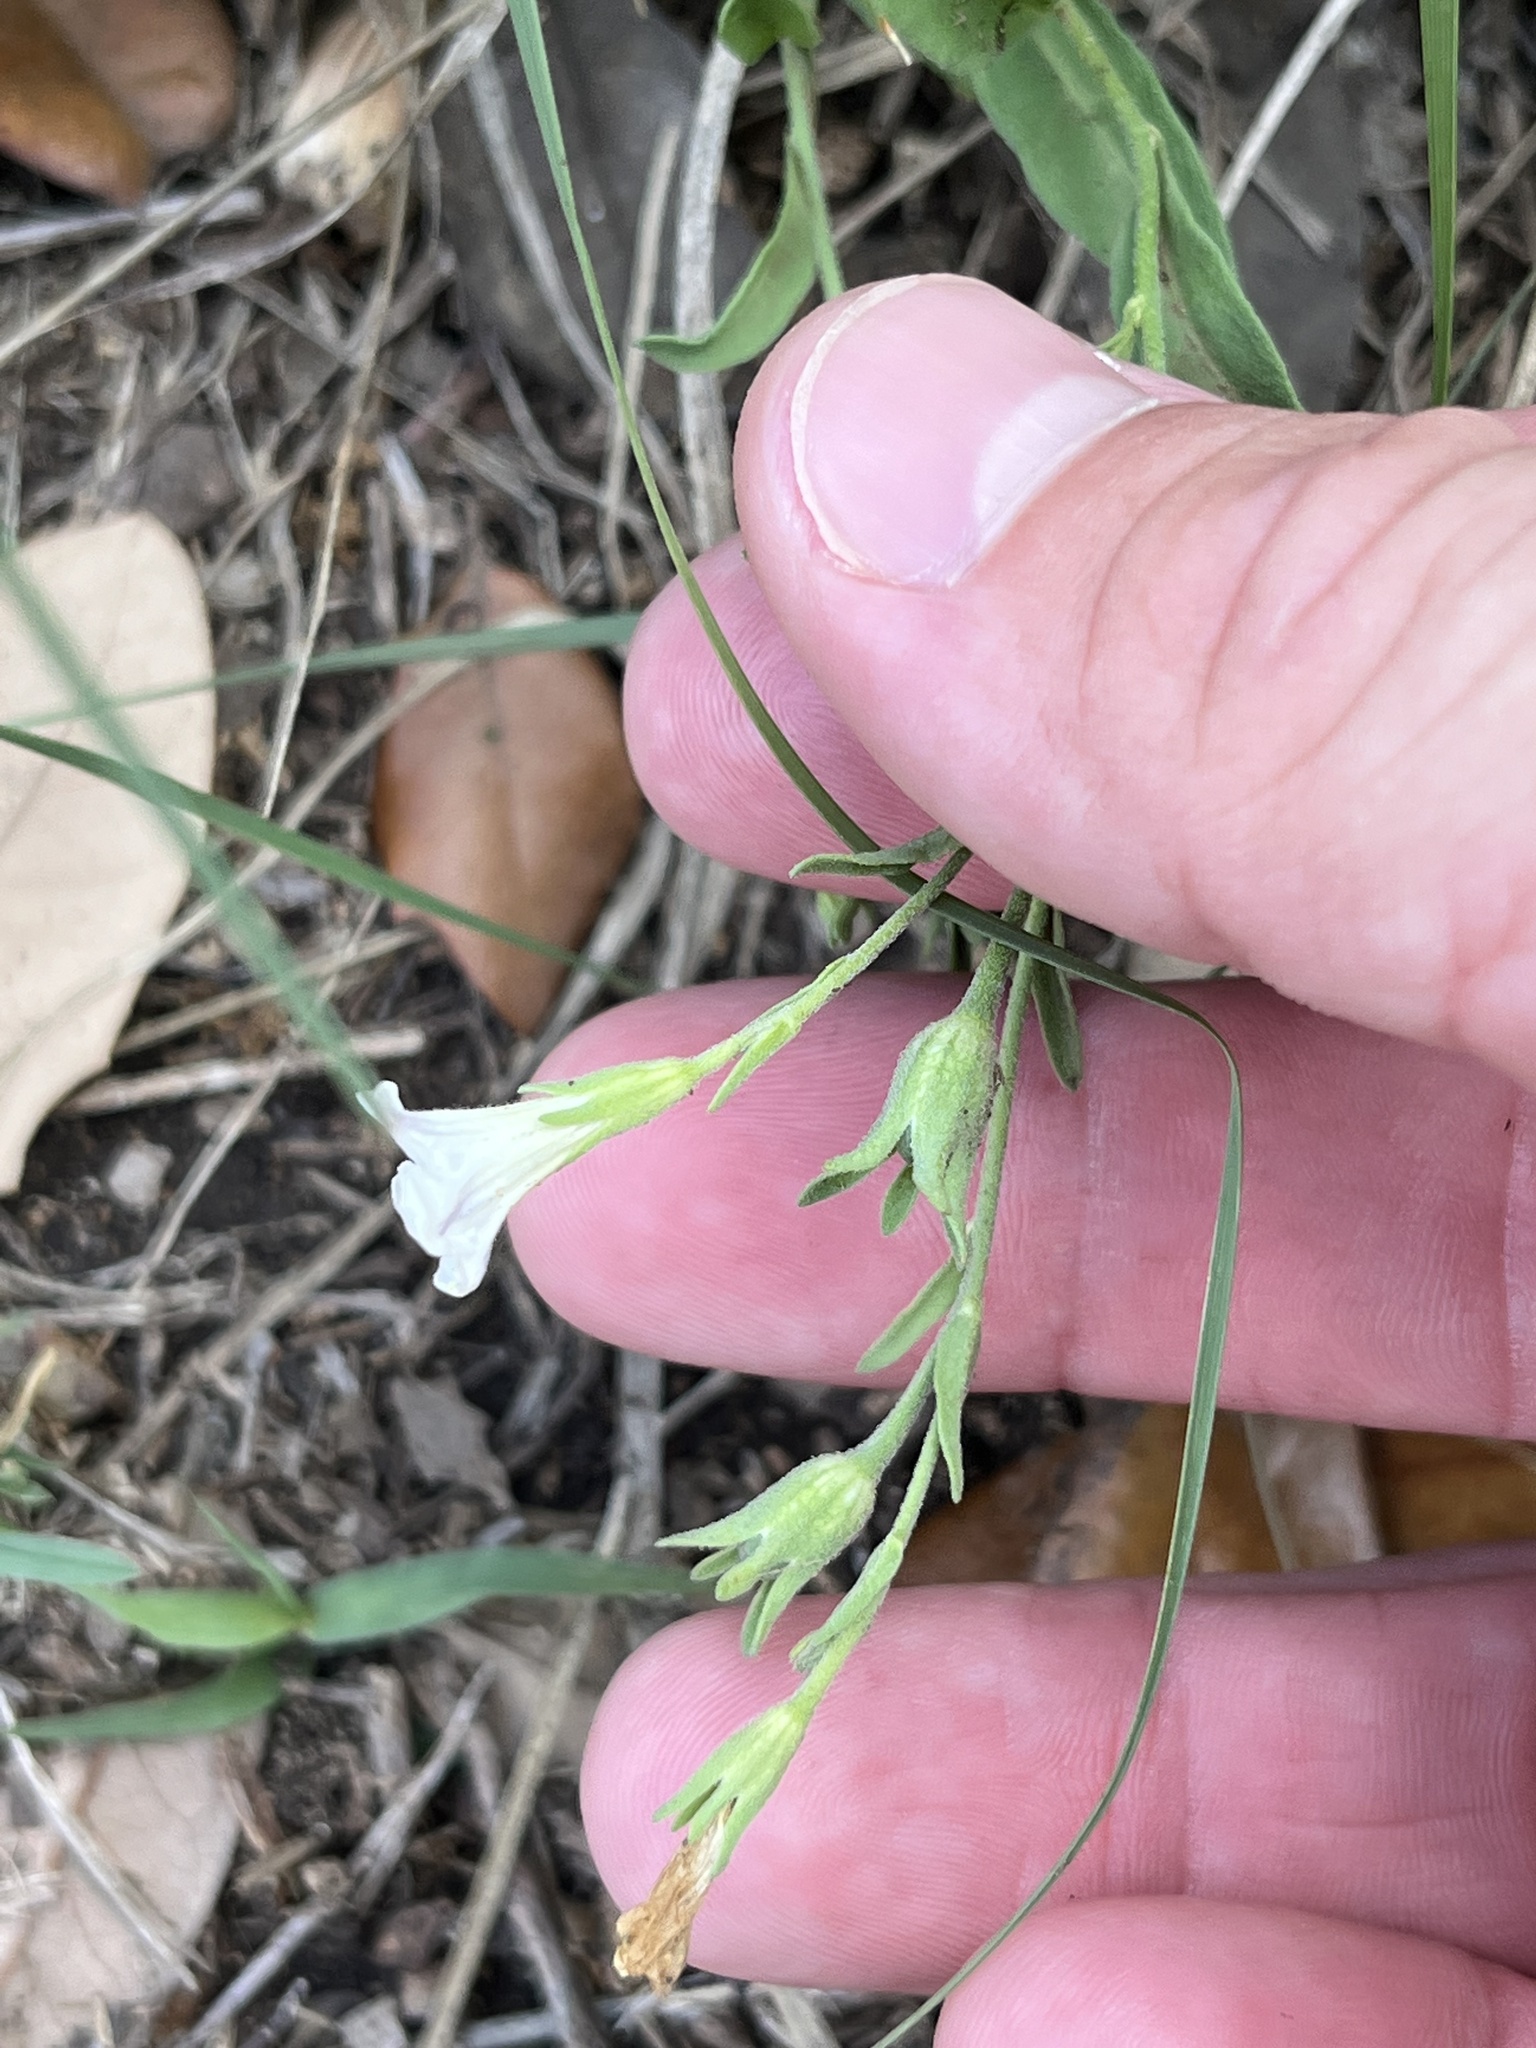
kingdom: Plantae
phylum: Tracheophyta
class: Magnoliopsida
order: Solanales
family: Solanaceae
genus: Salpiglossis
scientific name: Salpiglossis erecta
